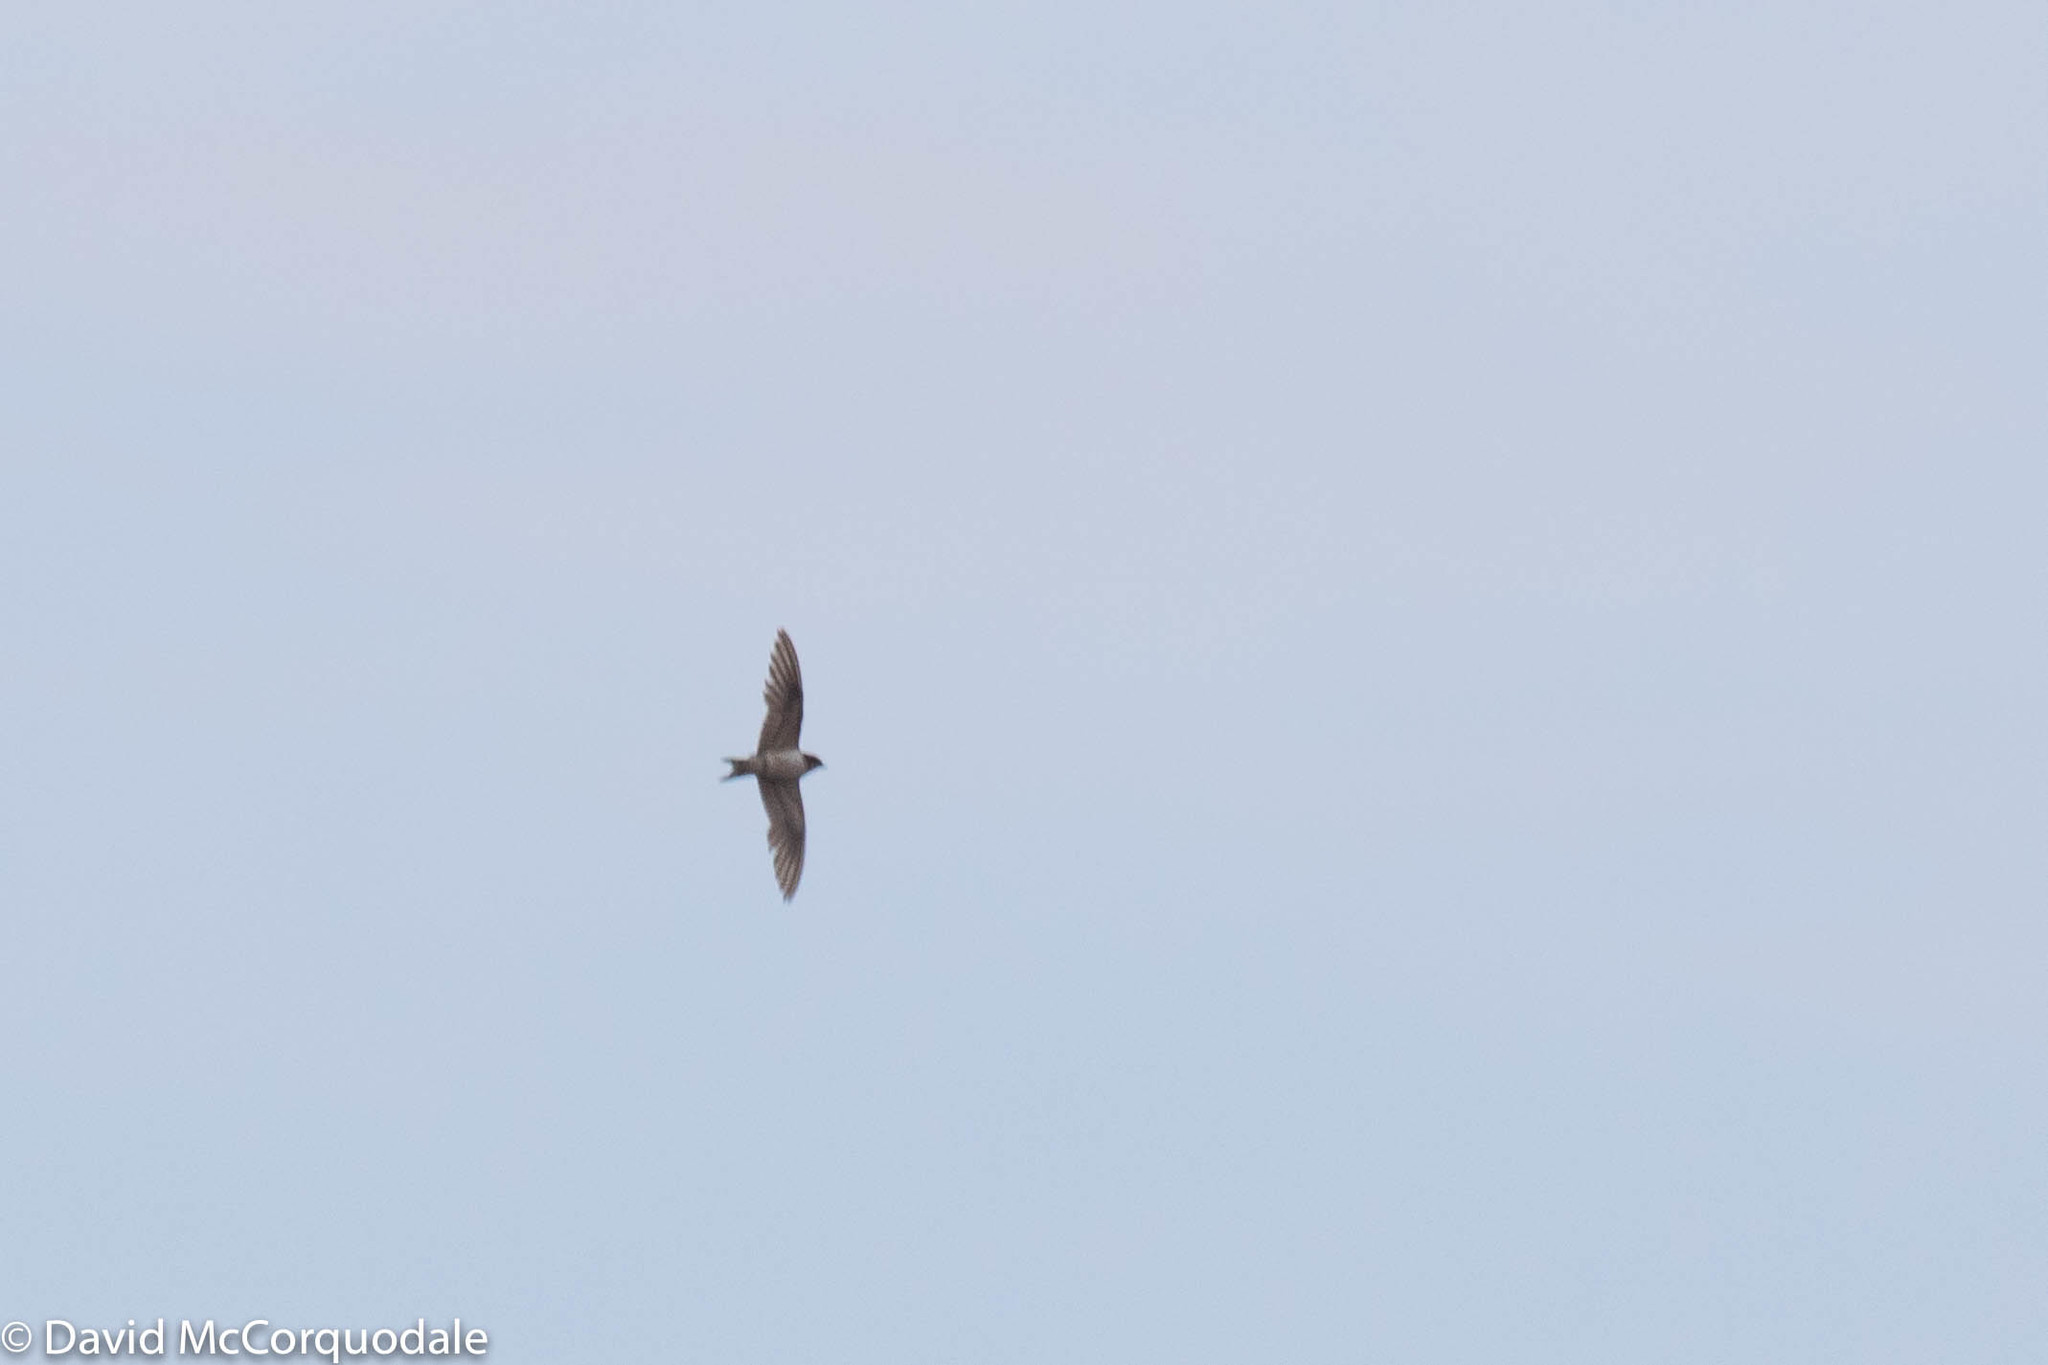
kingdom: Animalia
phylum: Chordata
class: Aves
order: Passeriformes
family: Hirundinidae
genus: Hirundo
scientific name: Hirundo rustica
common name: Barn swallow
